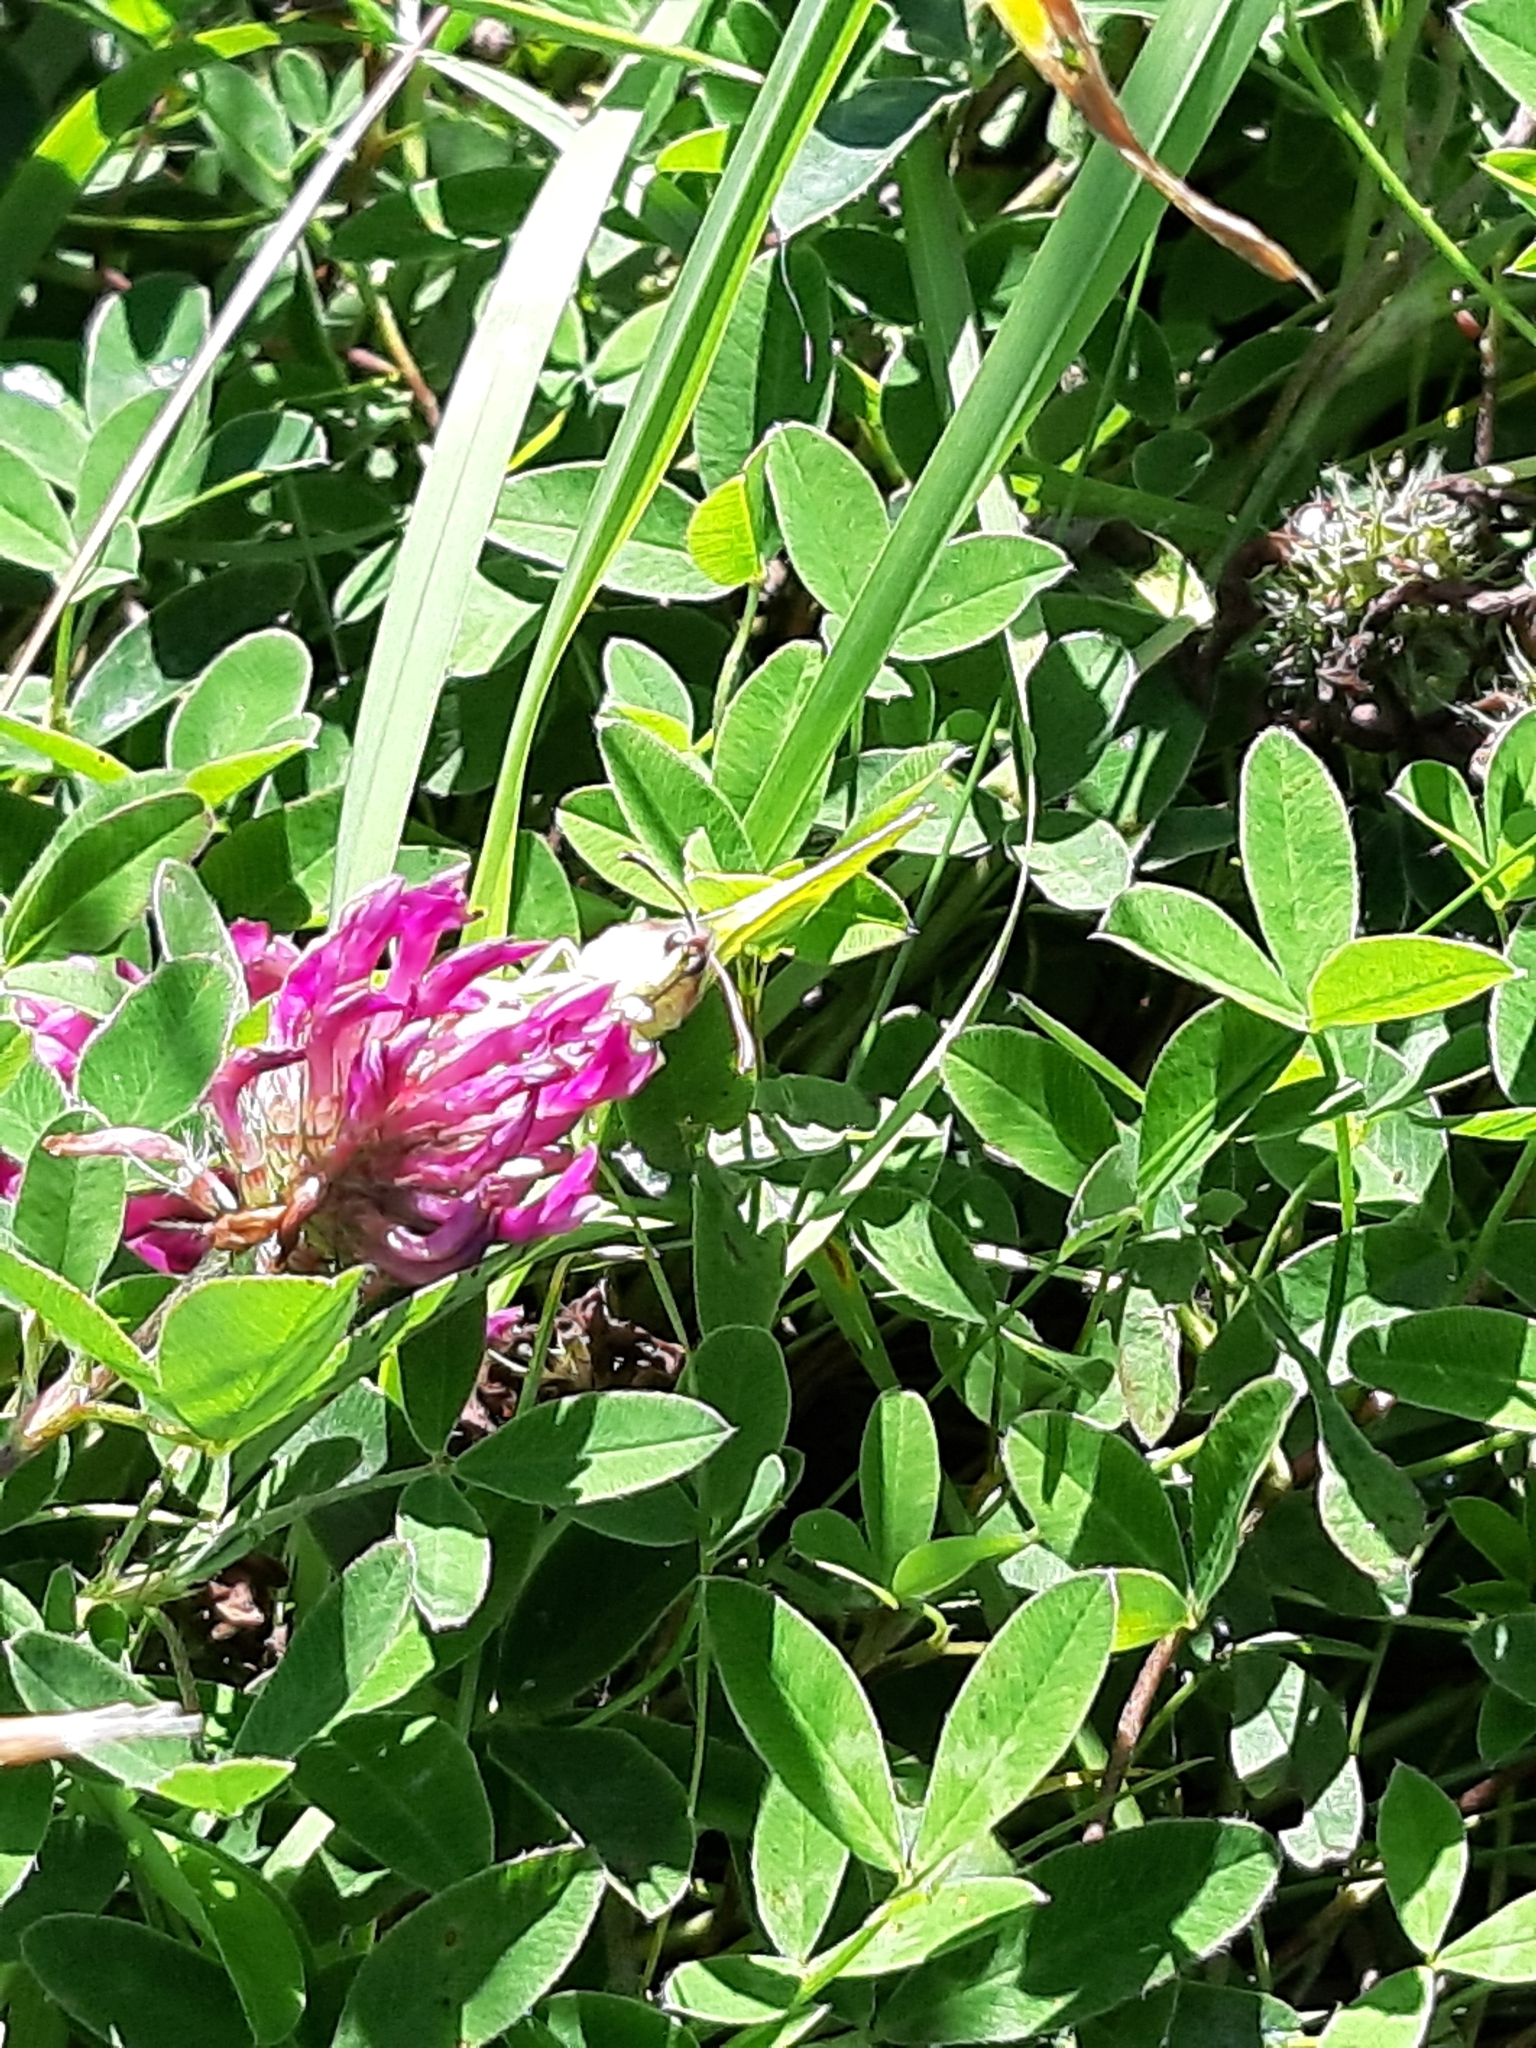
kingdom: Animalia
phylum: Arthropoda
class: Insecta
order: Lepidoptera
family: Pieridae
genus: Gonepteryx
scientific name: Gonepteryx rhamni
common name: Brimstone
